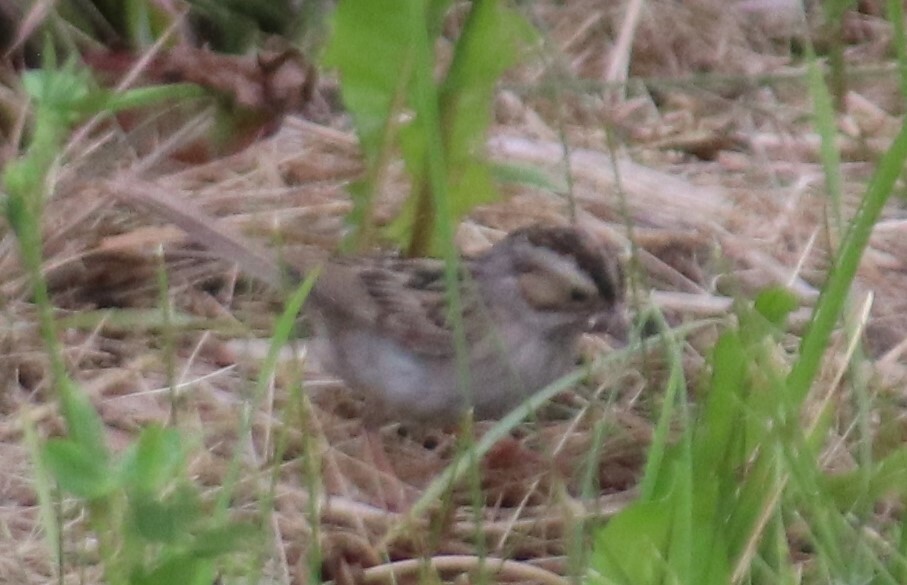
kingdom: Animalia
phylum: Chordata
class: Aves
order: Passeriformes
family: Passerellidae
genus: Spizella
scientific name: Spizella pallida
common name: Clay-colored sparrow
